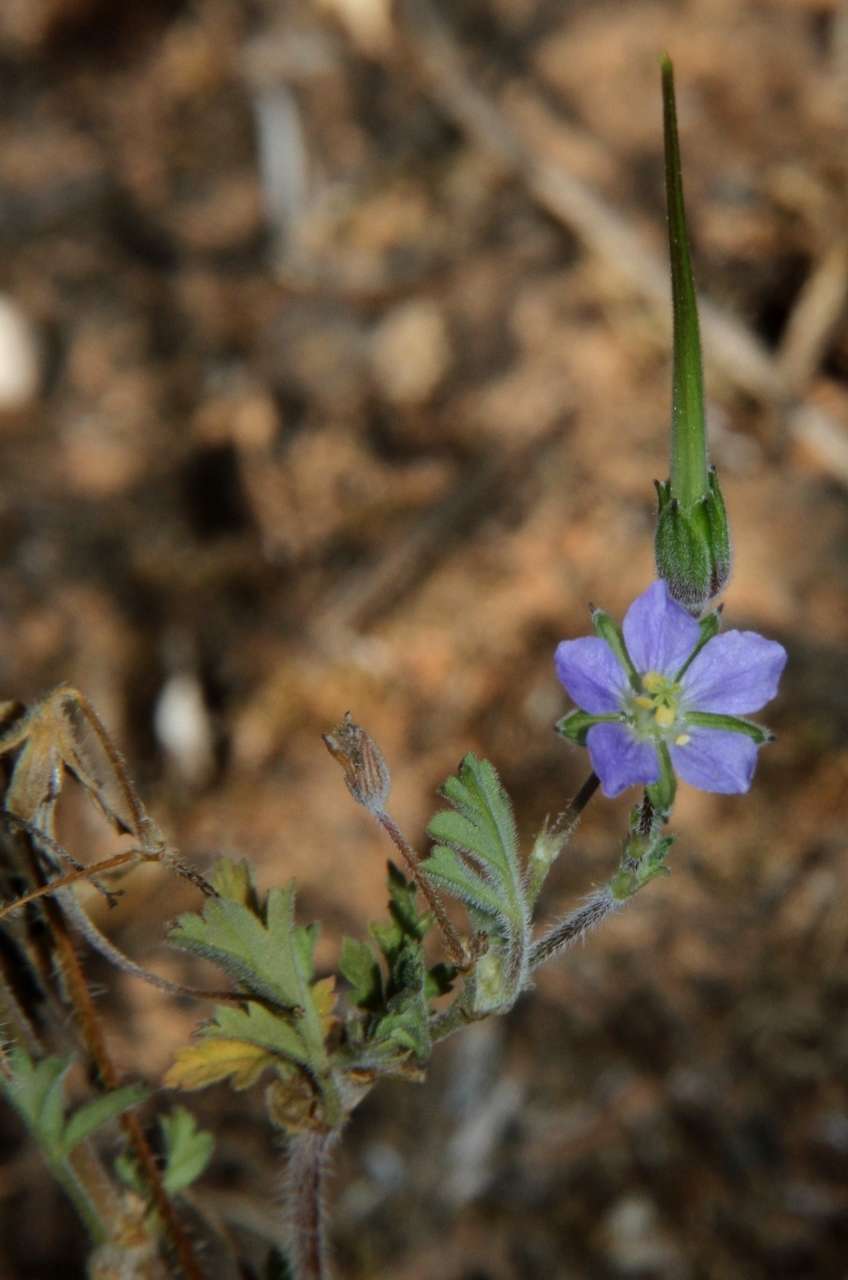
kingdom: Plantae
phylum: Tracheophyta
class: Magnoliopsida
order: Geraniales
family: Geraniaceae
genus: Erodium
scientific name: Erodium crinitum
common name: Eastern stork's-bill
